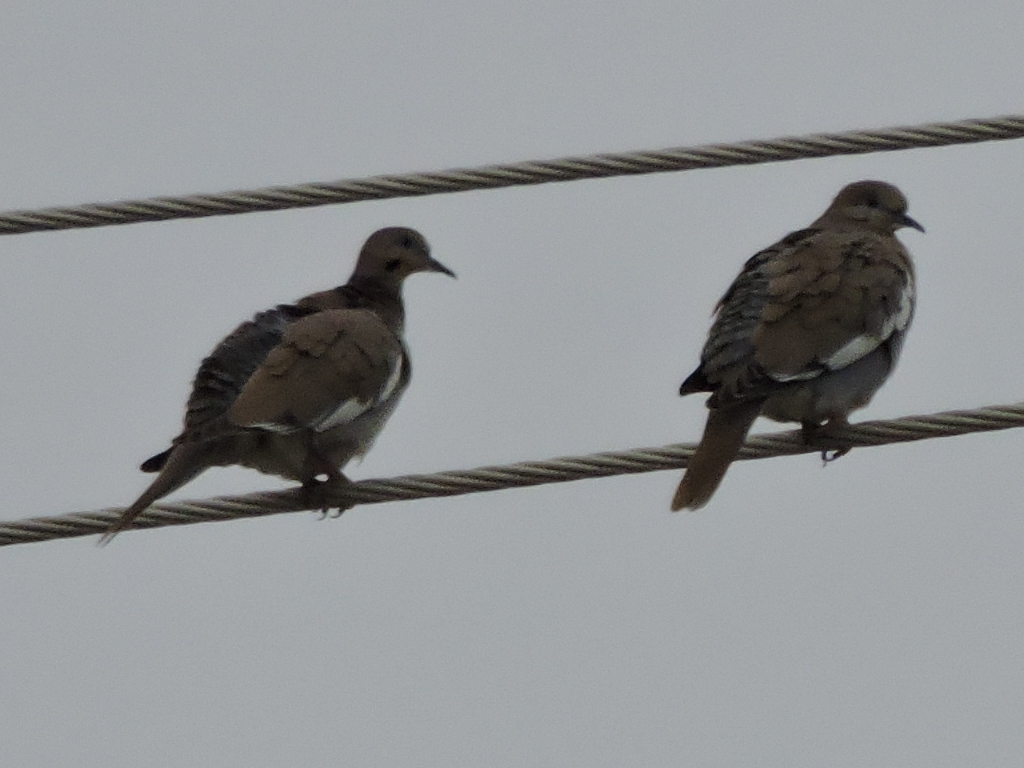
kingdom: Animalia
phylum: Chordata
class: Aves
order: Columbiformes
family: Columbidae
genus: Zenaida
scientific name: Zenaida asiatica
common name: White-winged dove
